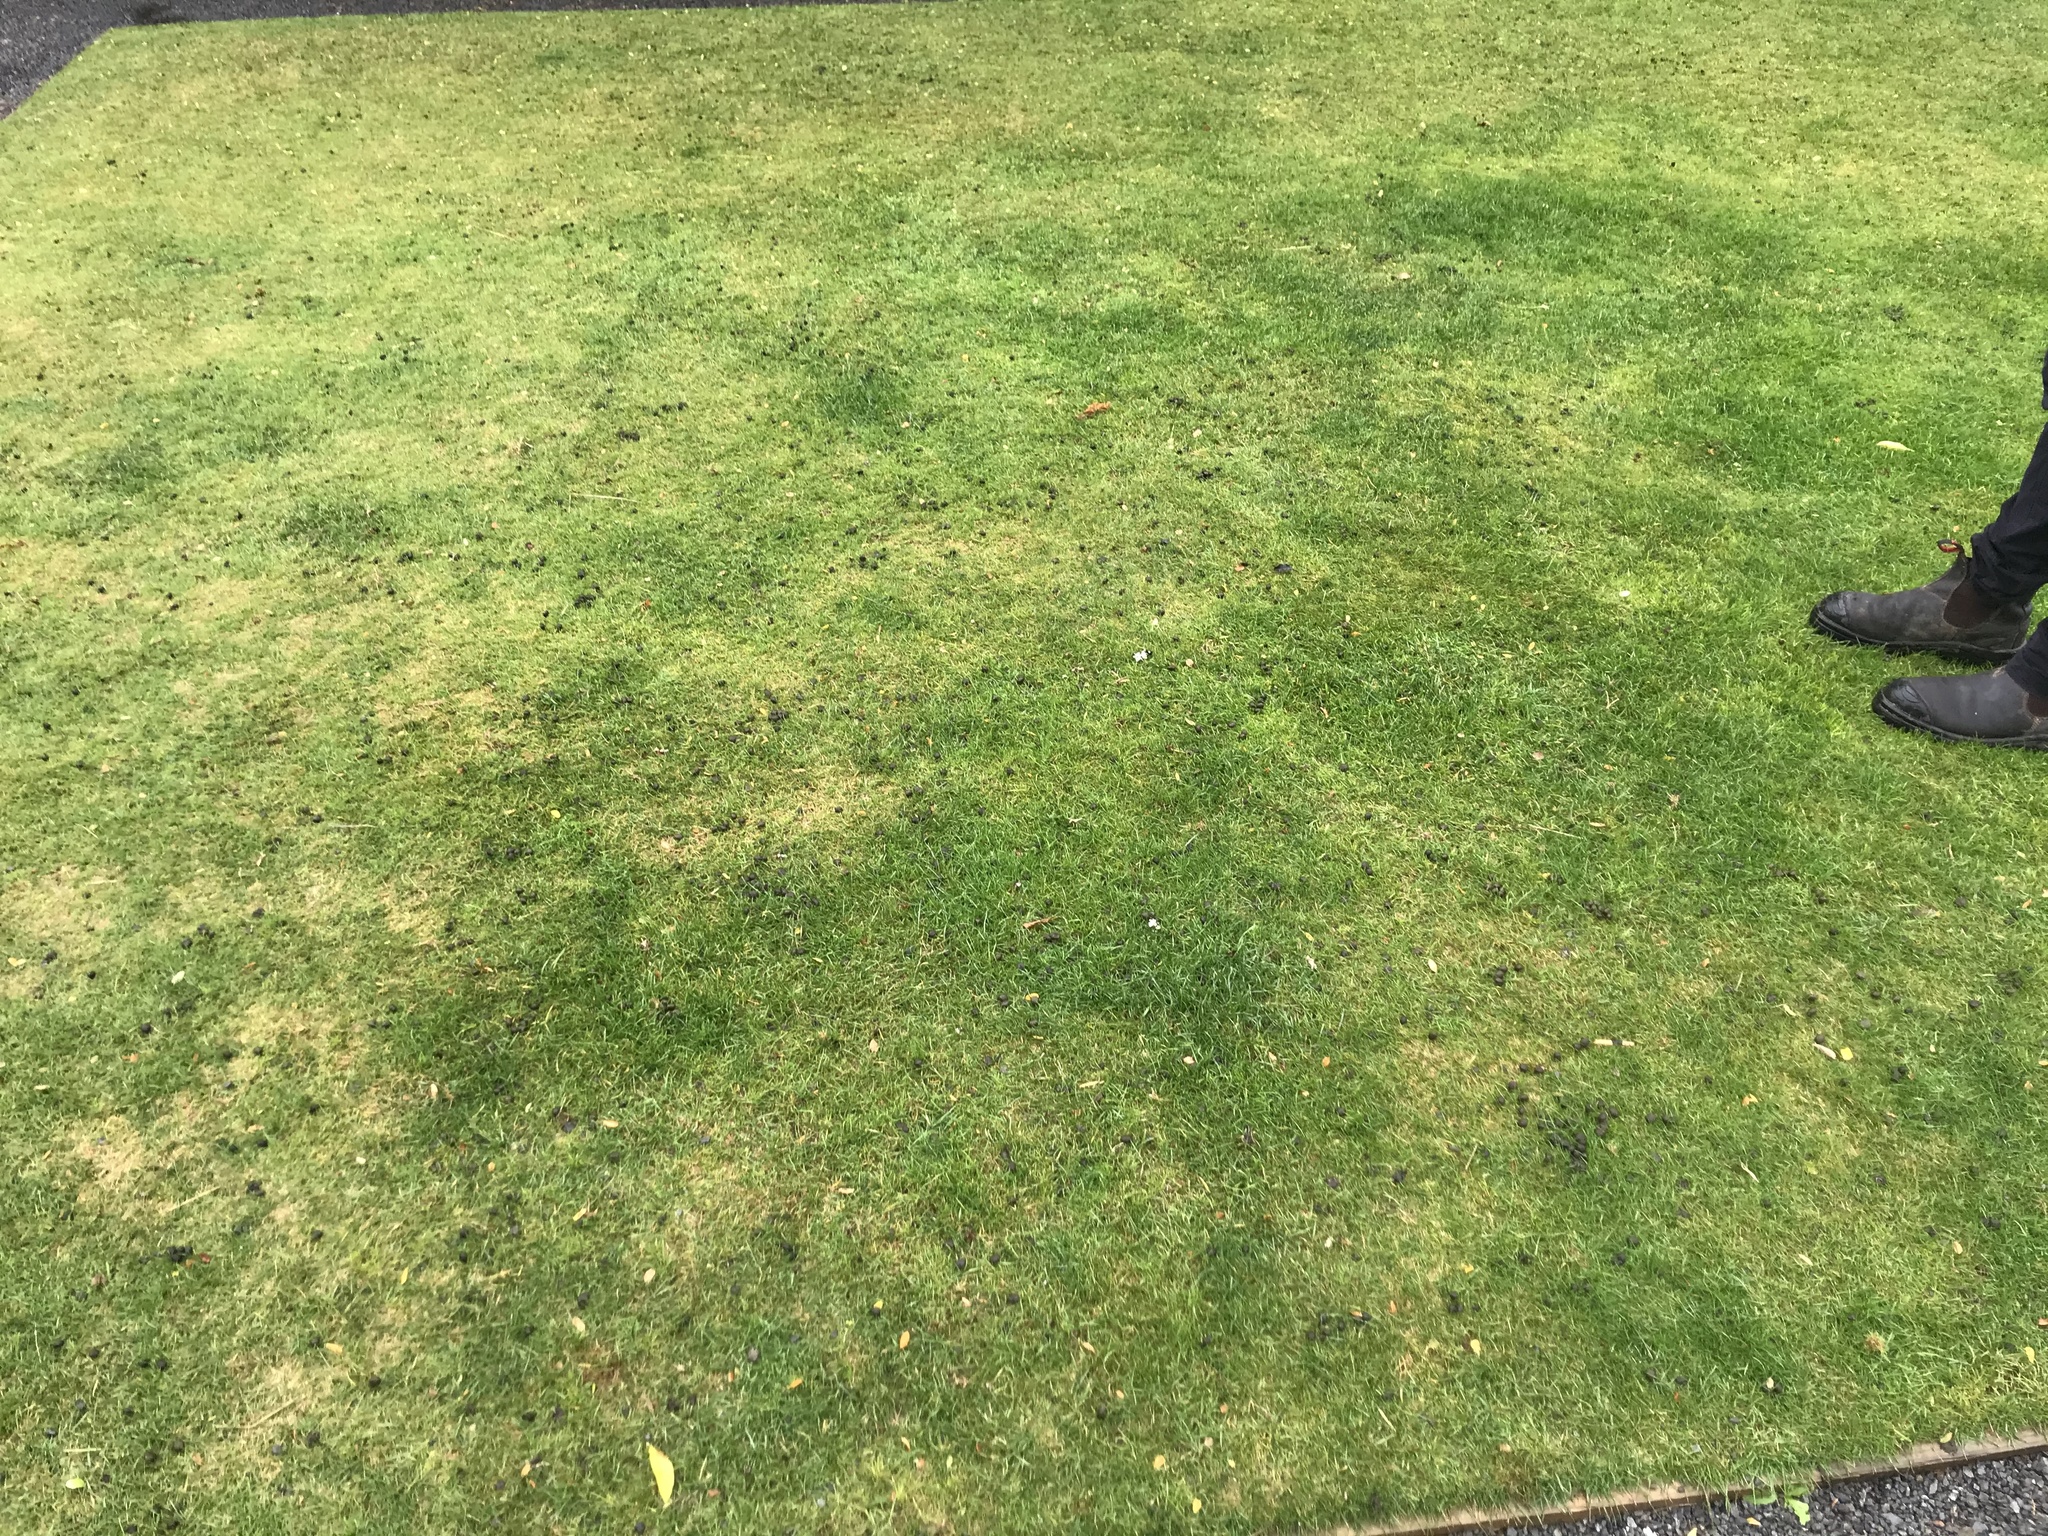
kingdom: Animalia
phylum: Chordata
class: Mammalia
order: Lagomorpha
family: Leporidae
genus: Oryctolagus
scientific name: Oryctolagus cuniculus
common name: European rabbit
